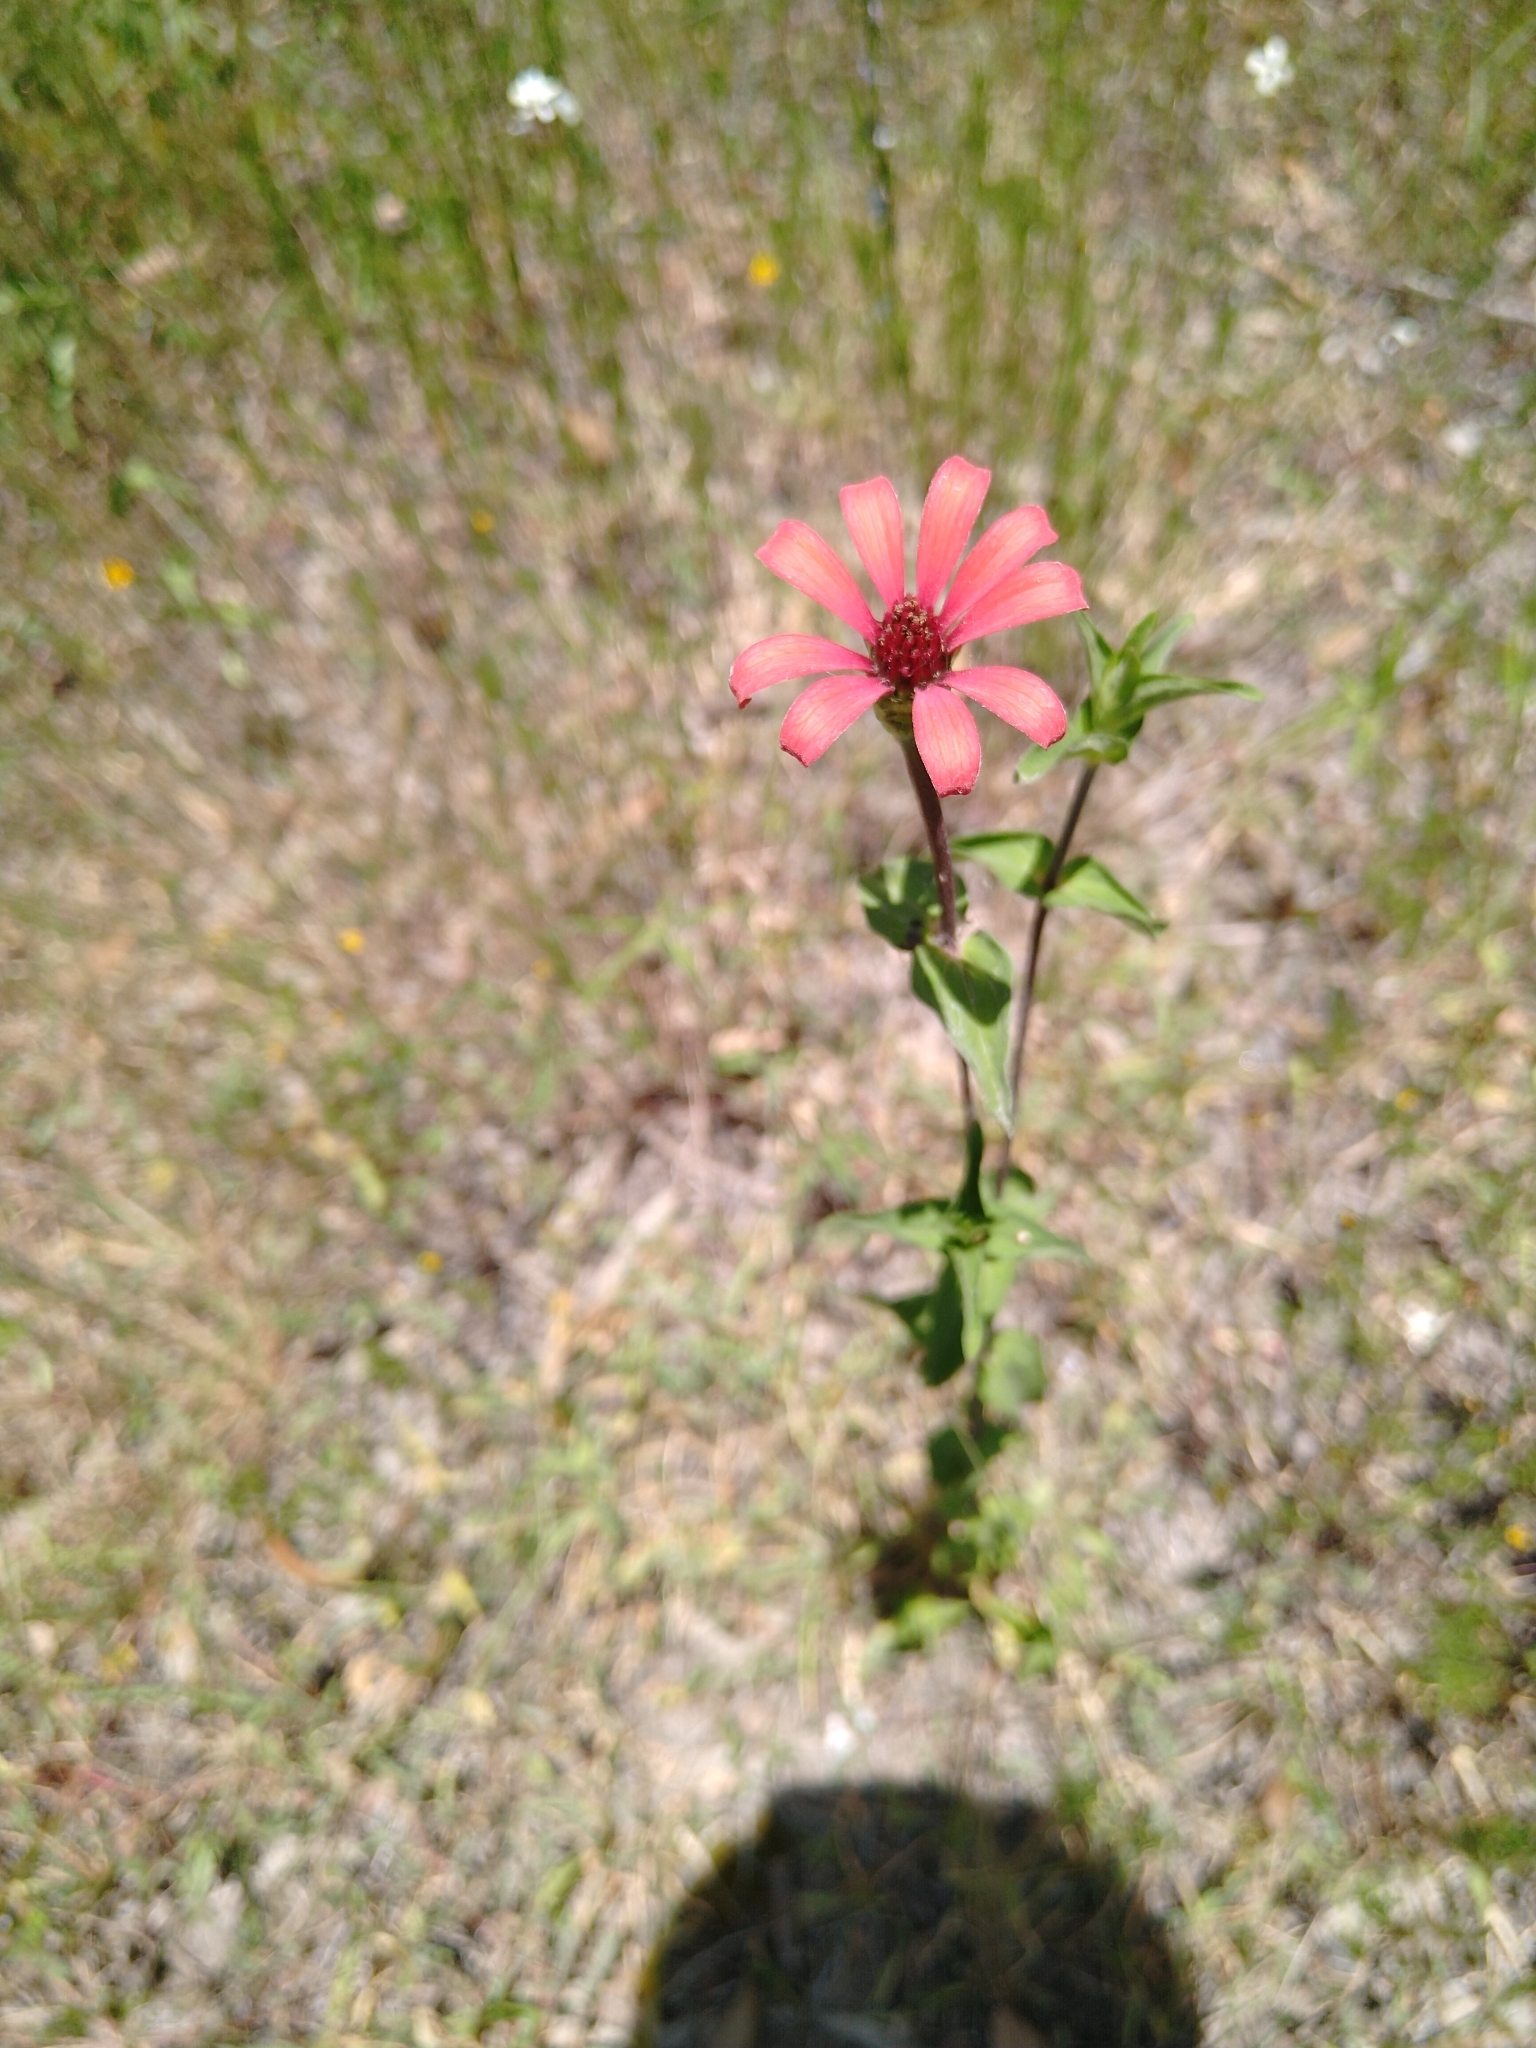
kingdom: Plantae
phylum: Tracheophyta
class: Magnoliopsida
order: Asterales
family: Asteraceae
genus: Zinnia
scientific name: Zinnia peruviana
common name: Peruvian zinnia
